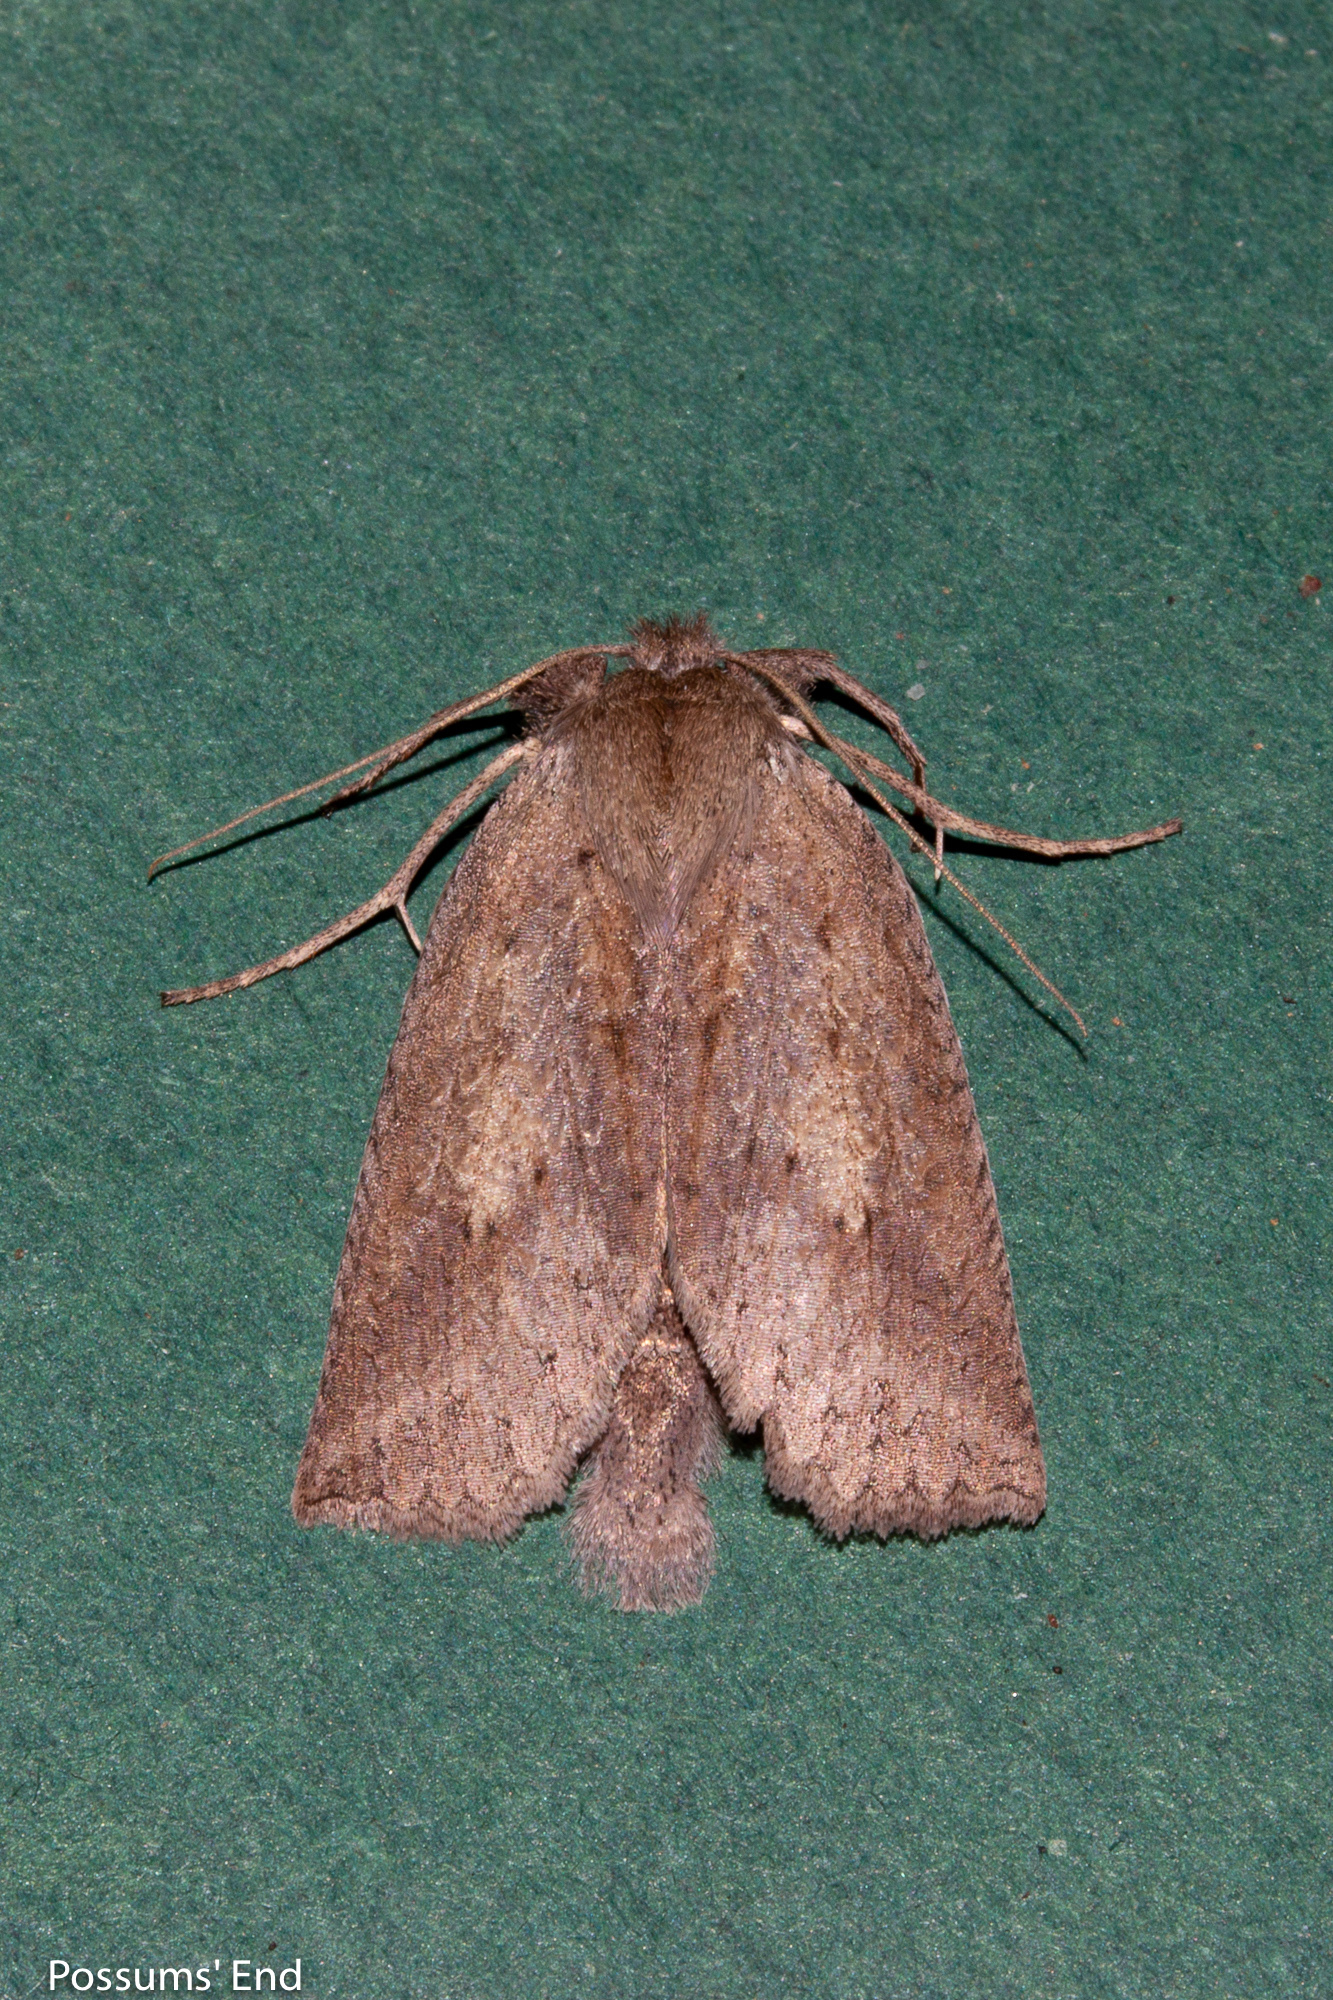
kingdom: Animalia
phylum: Arthropoda
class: Insecta
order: Lepidoptera
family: Geometridae
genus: Declana
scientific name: Declana leptomera
